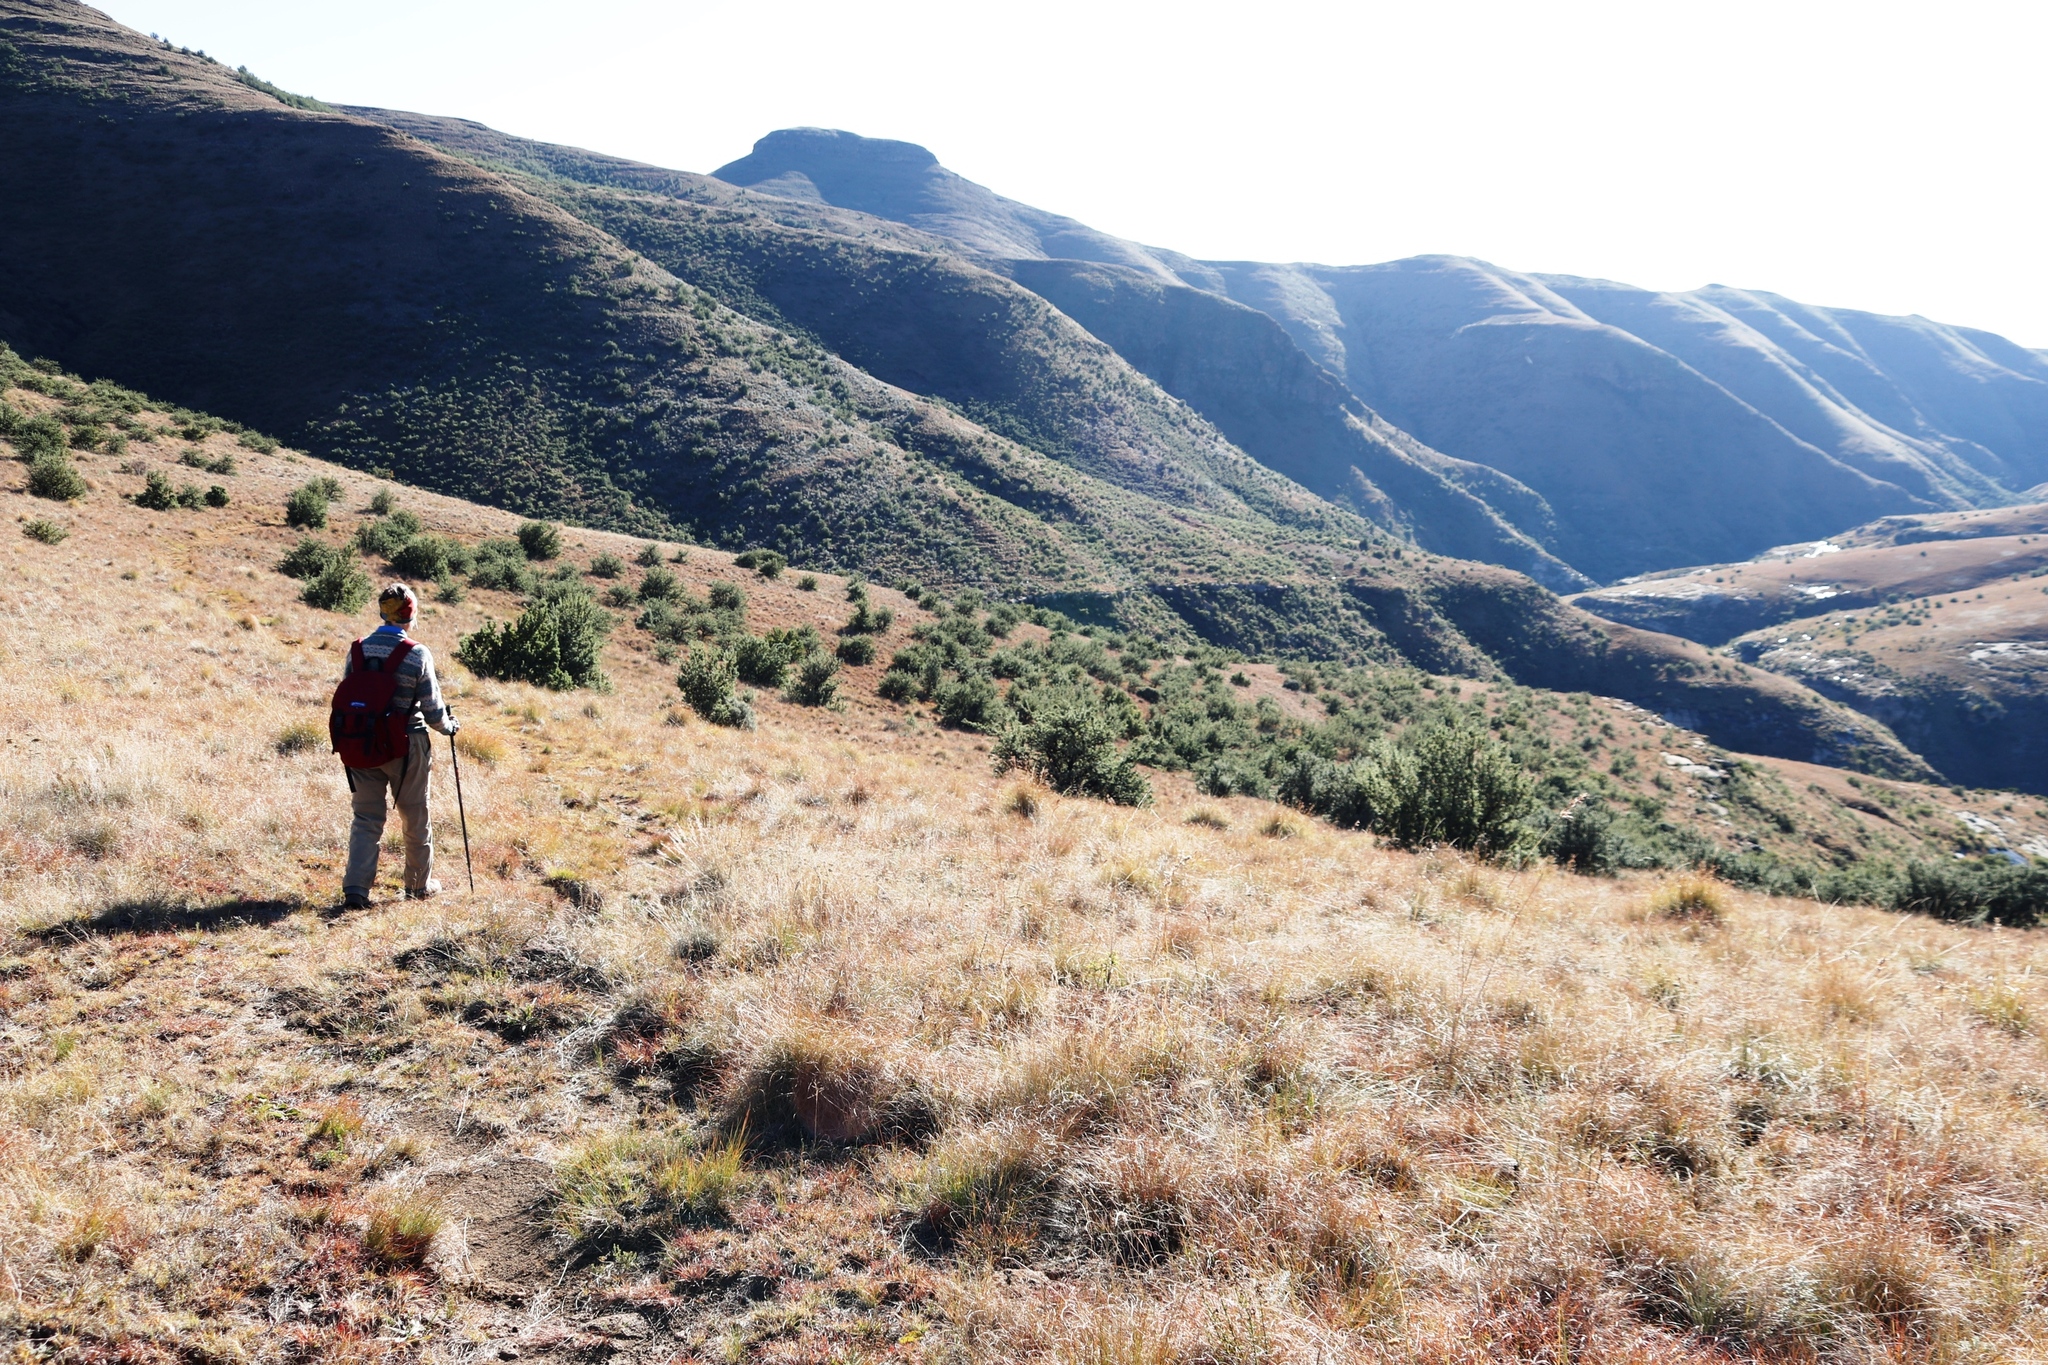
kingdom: Plantae
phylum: Tracheophyta
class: Magnoliopsida
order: Rosales
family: Rosaceae
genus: Leucosidea
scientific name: Leucosidea sericea
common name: Oldwood
